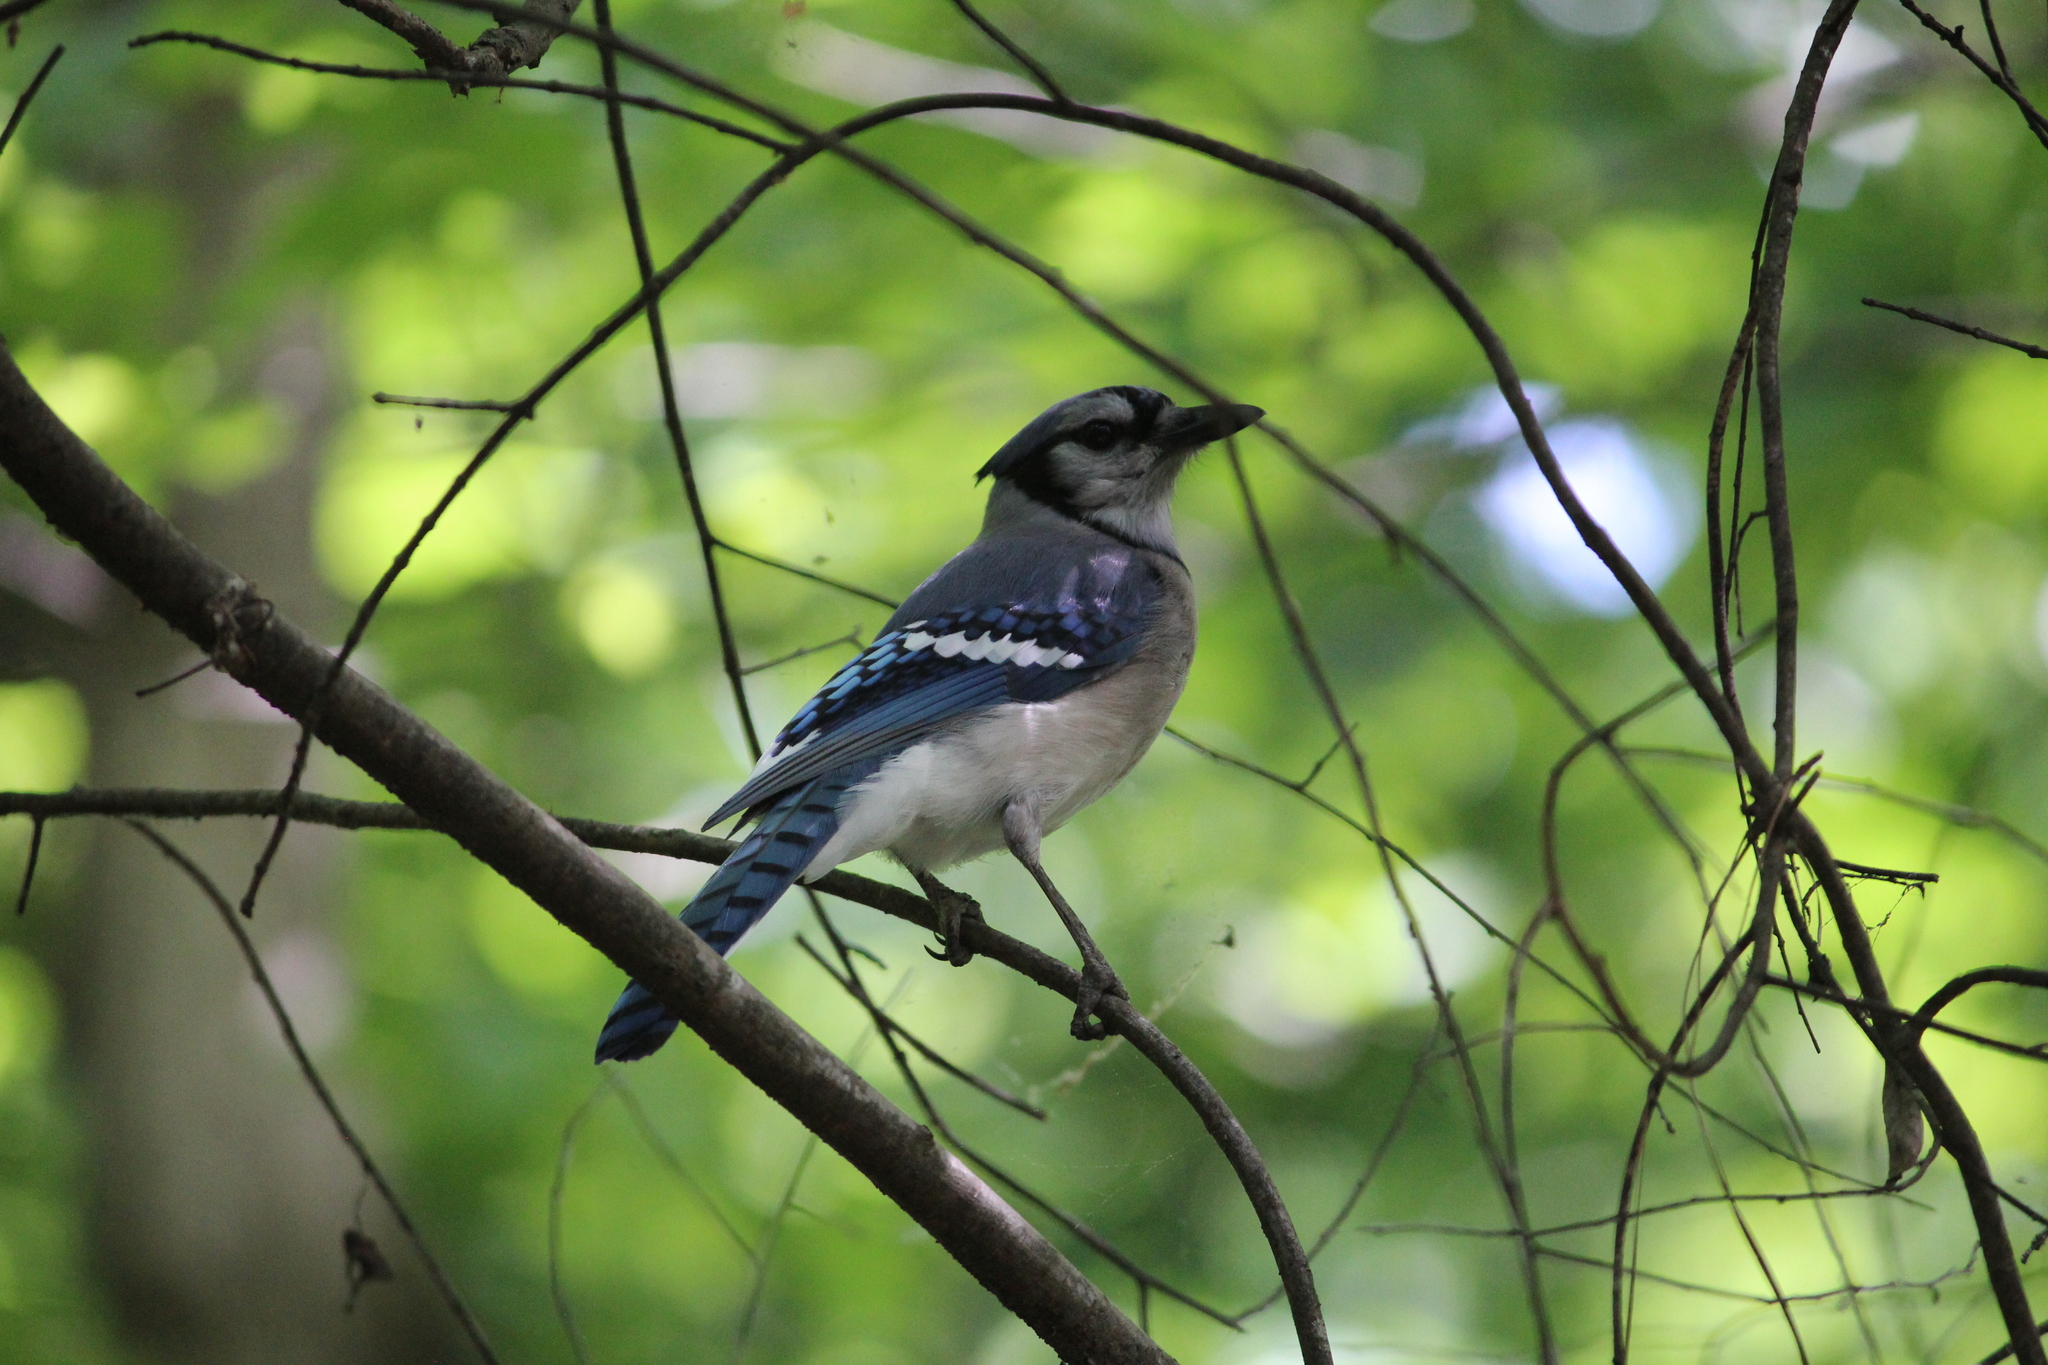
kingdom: Animalia
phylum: Chordata
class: Aves
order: Passeriformes
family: Corvidae
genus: Cyanocitta
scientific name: Cyanocitta cristata
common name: Blue jay
